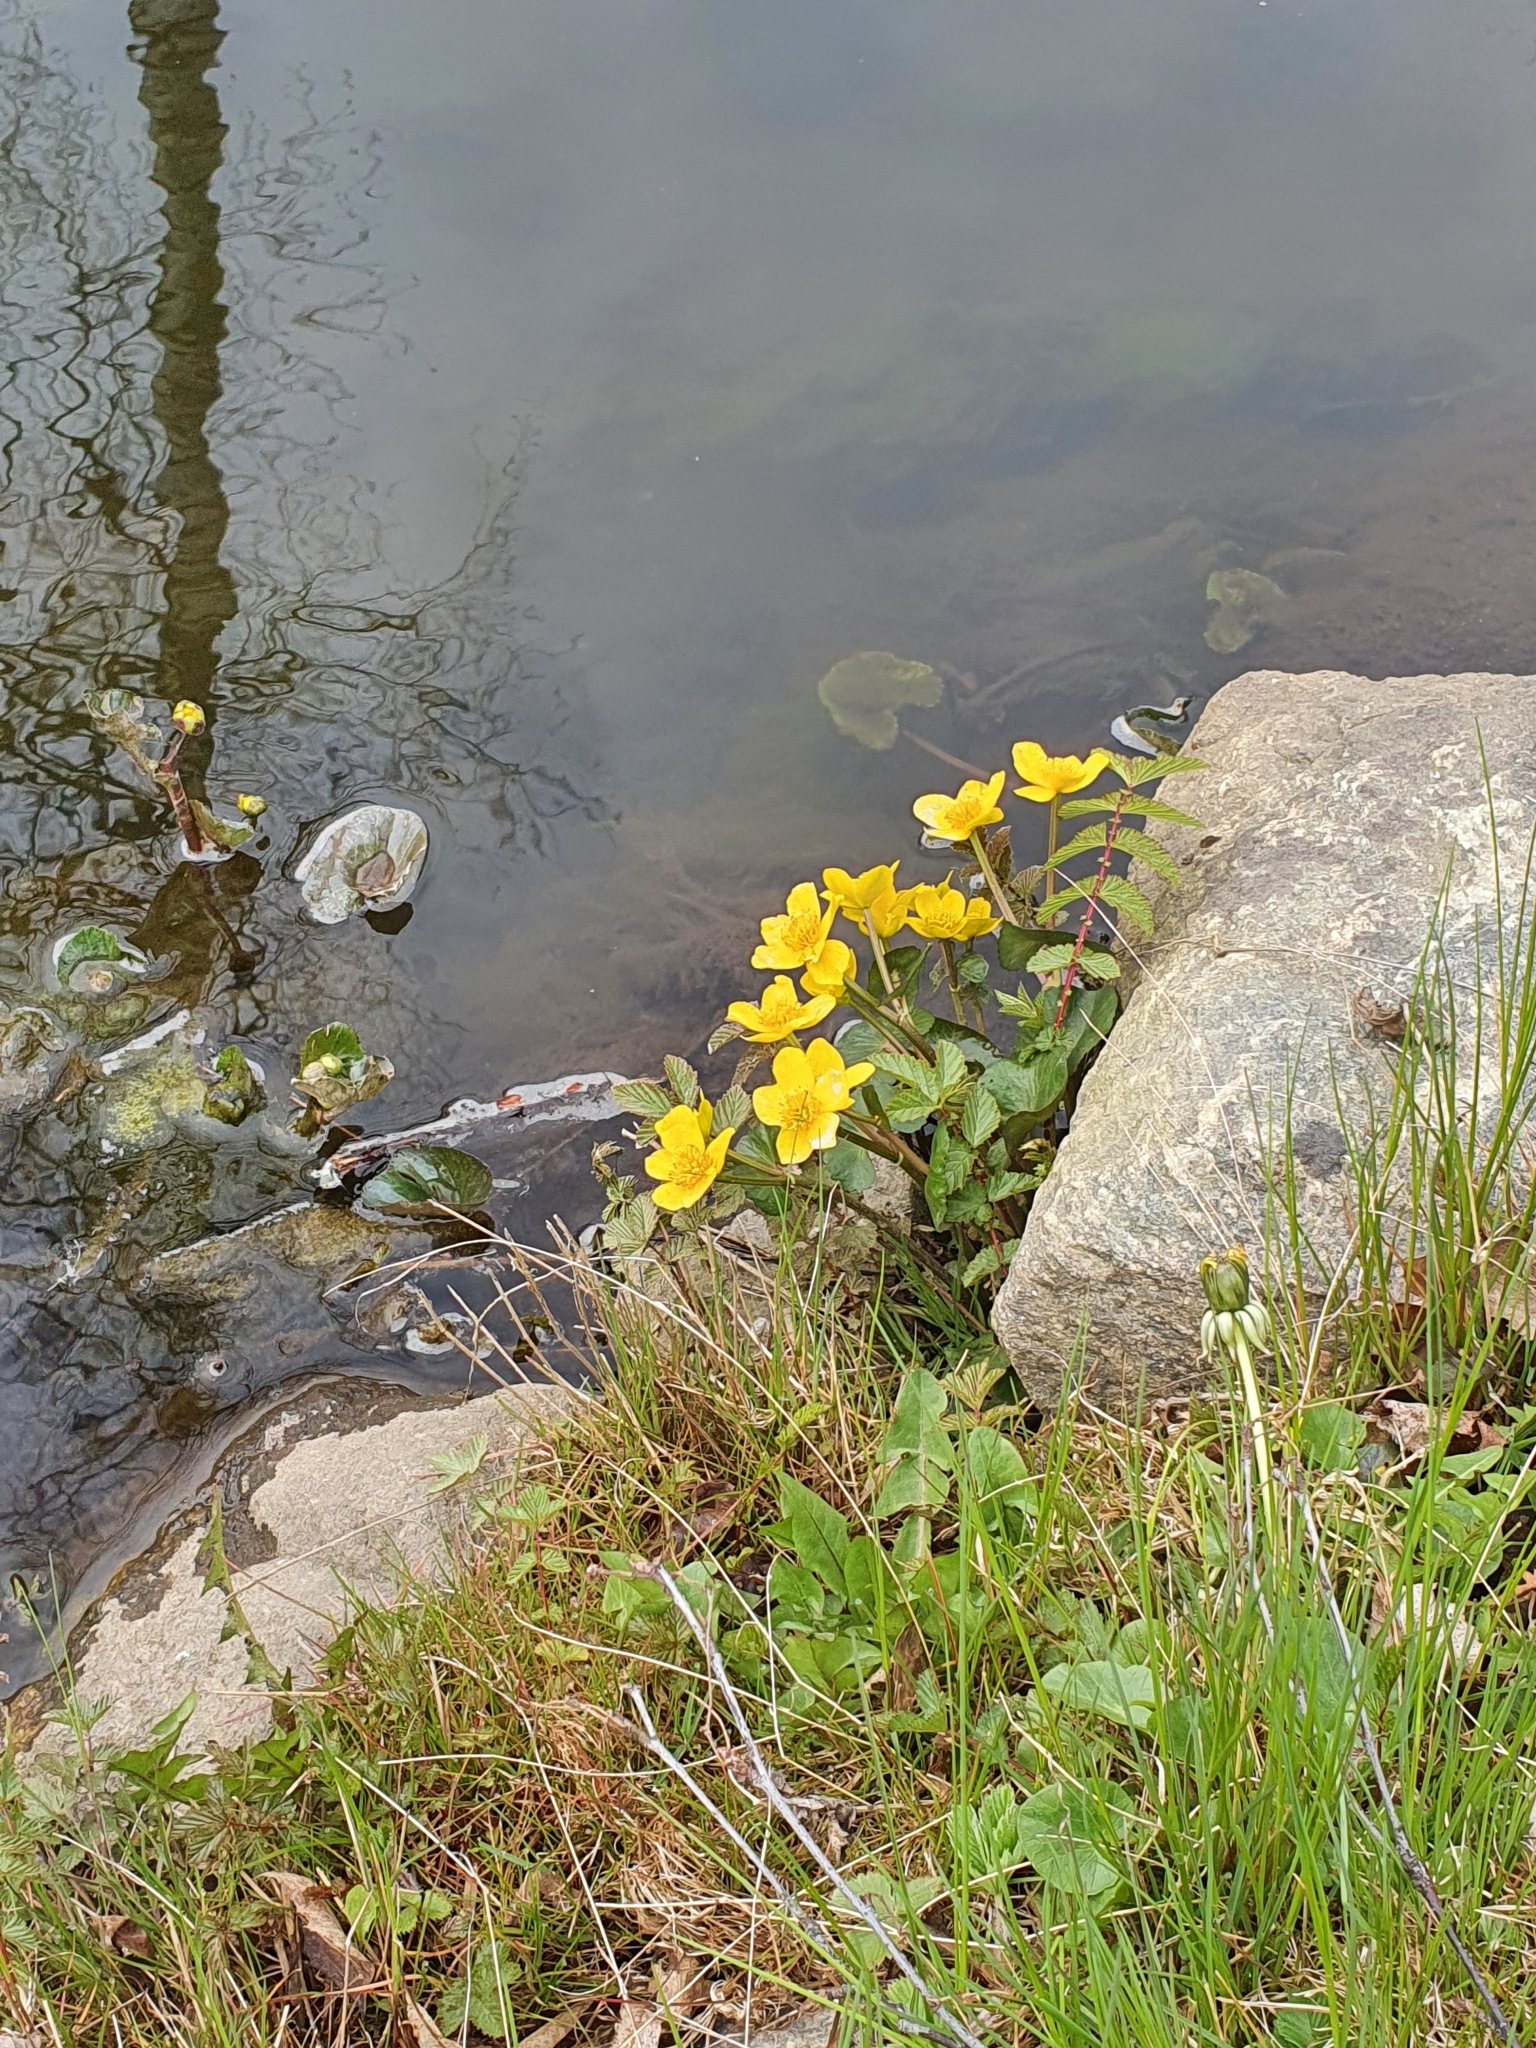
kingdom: Plantae
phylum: Tracheophyta
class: Magnoliopsida
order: Ranunculales
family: Ranunculaceae
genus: Caltha
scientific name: Caltha palustris
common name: Marsh marigold
